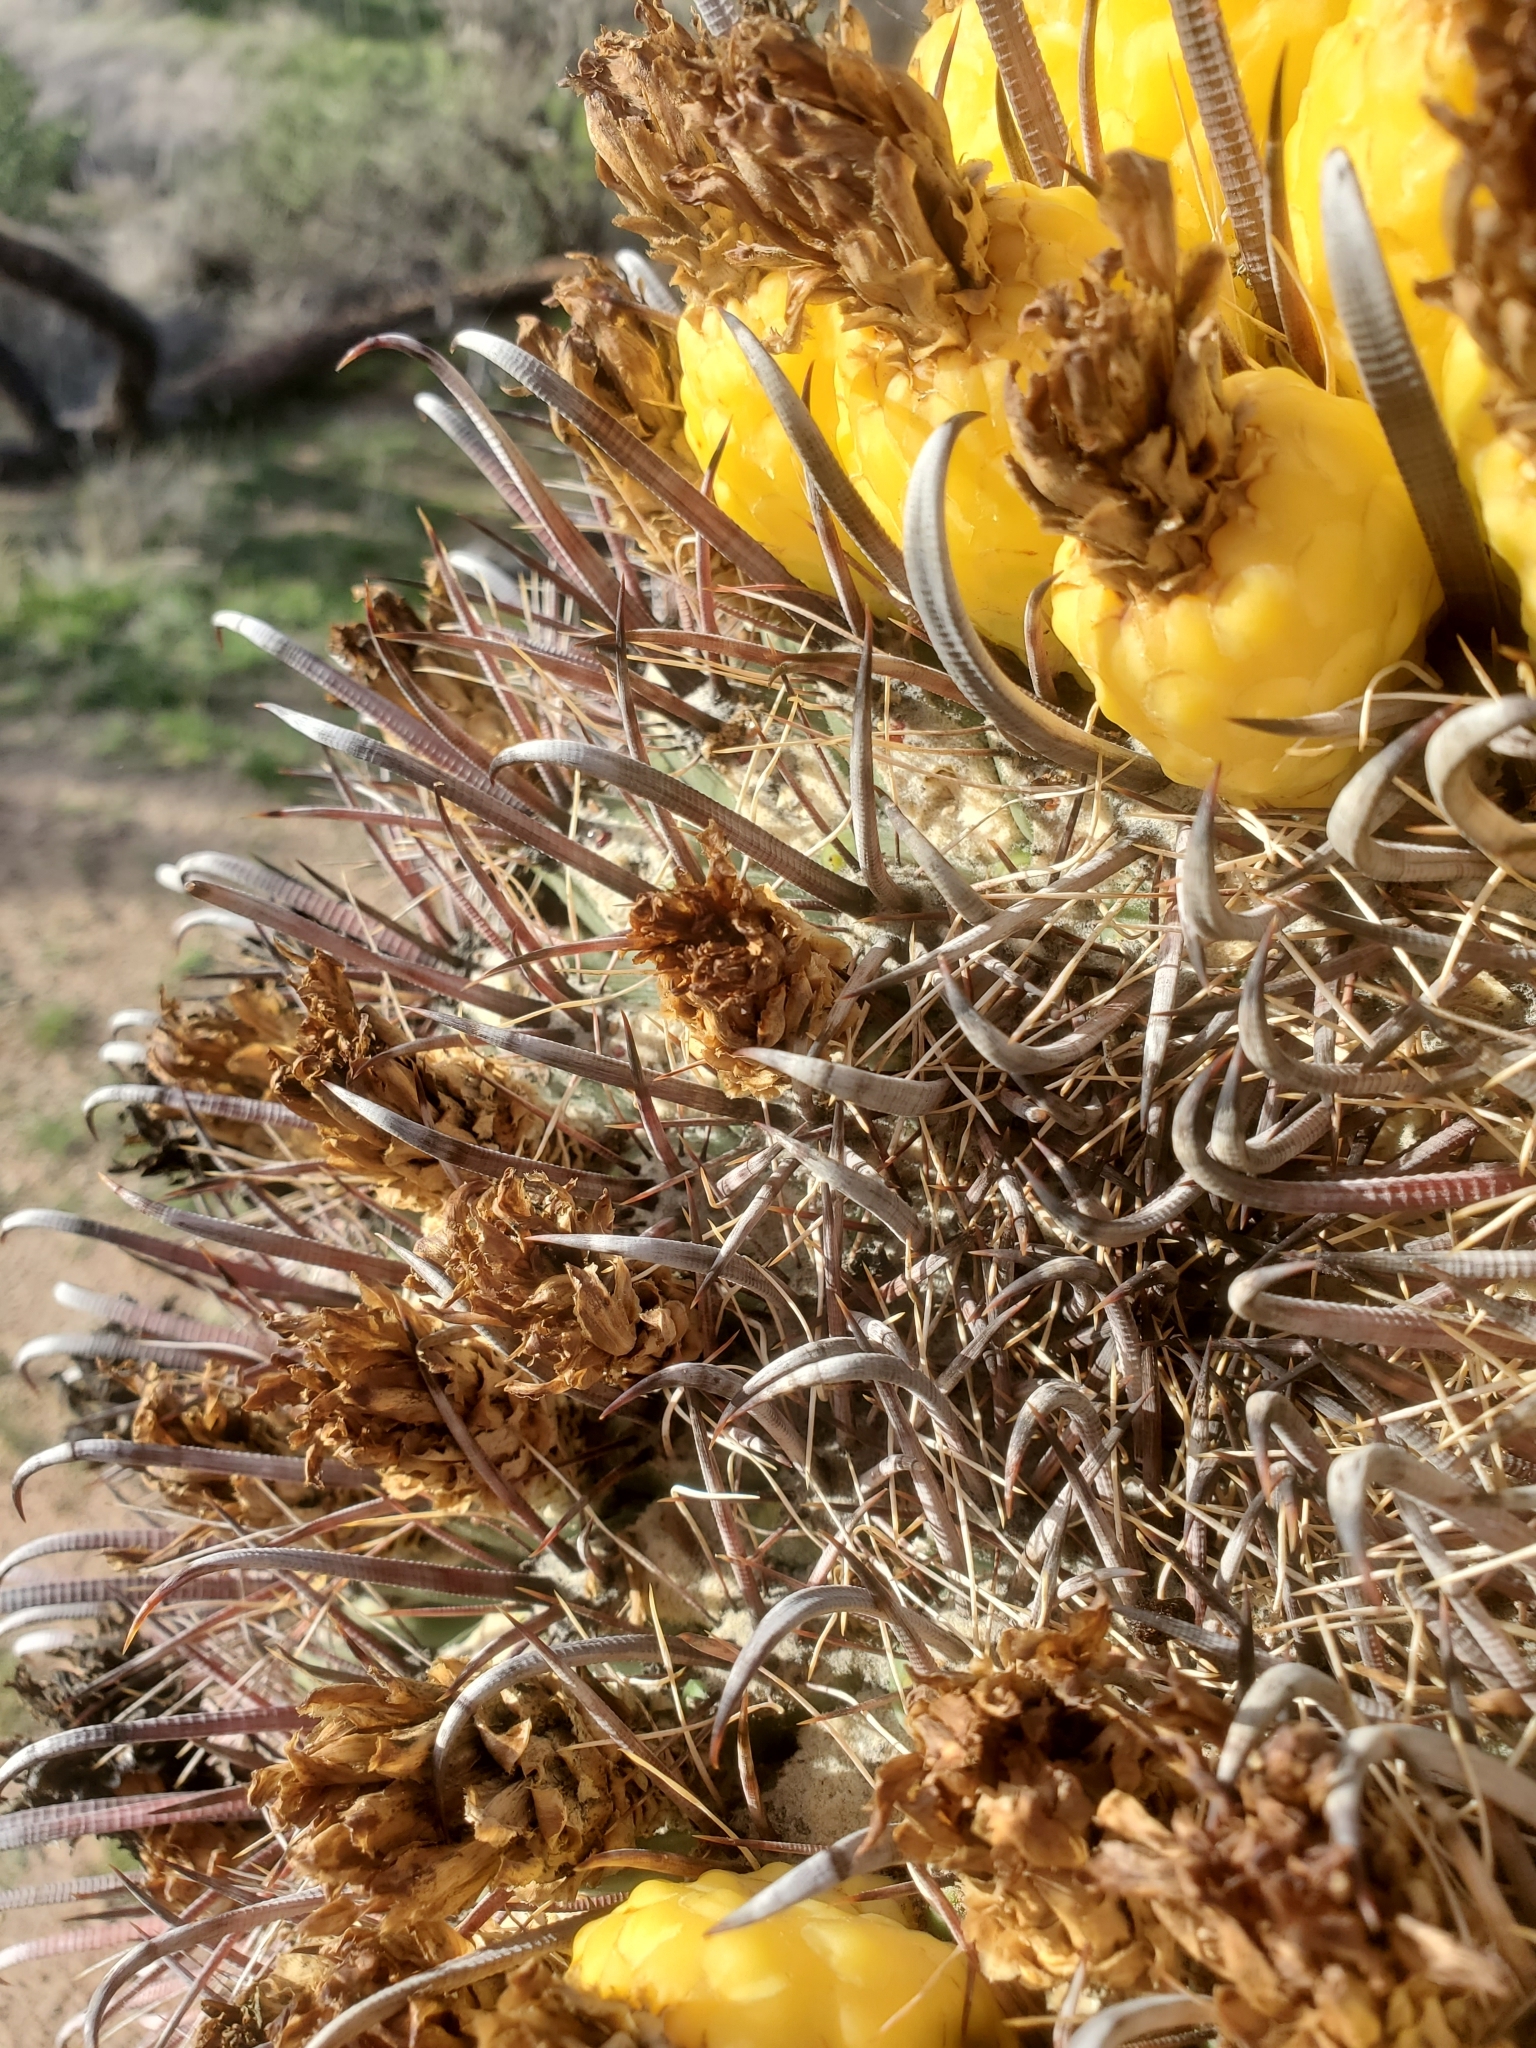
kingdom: Plantae
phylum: Tracheophyta
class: Magnoliopsida
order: Caryophyllales
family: Cactaceae
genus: Ferocactus
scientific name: Ferocactus wislizeni
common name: Candy barrel cactus
